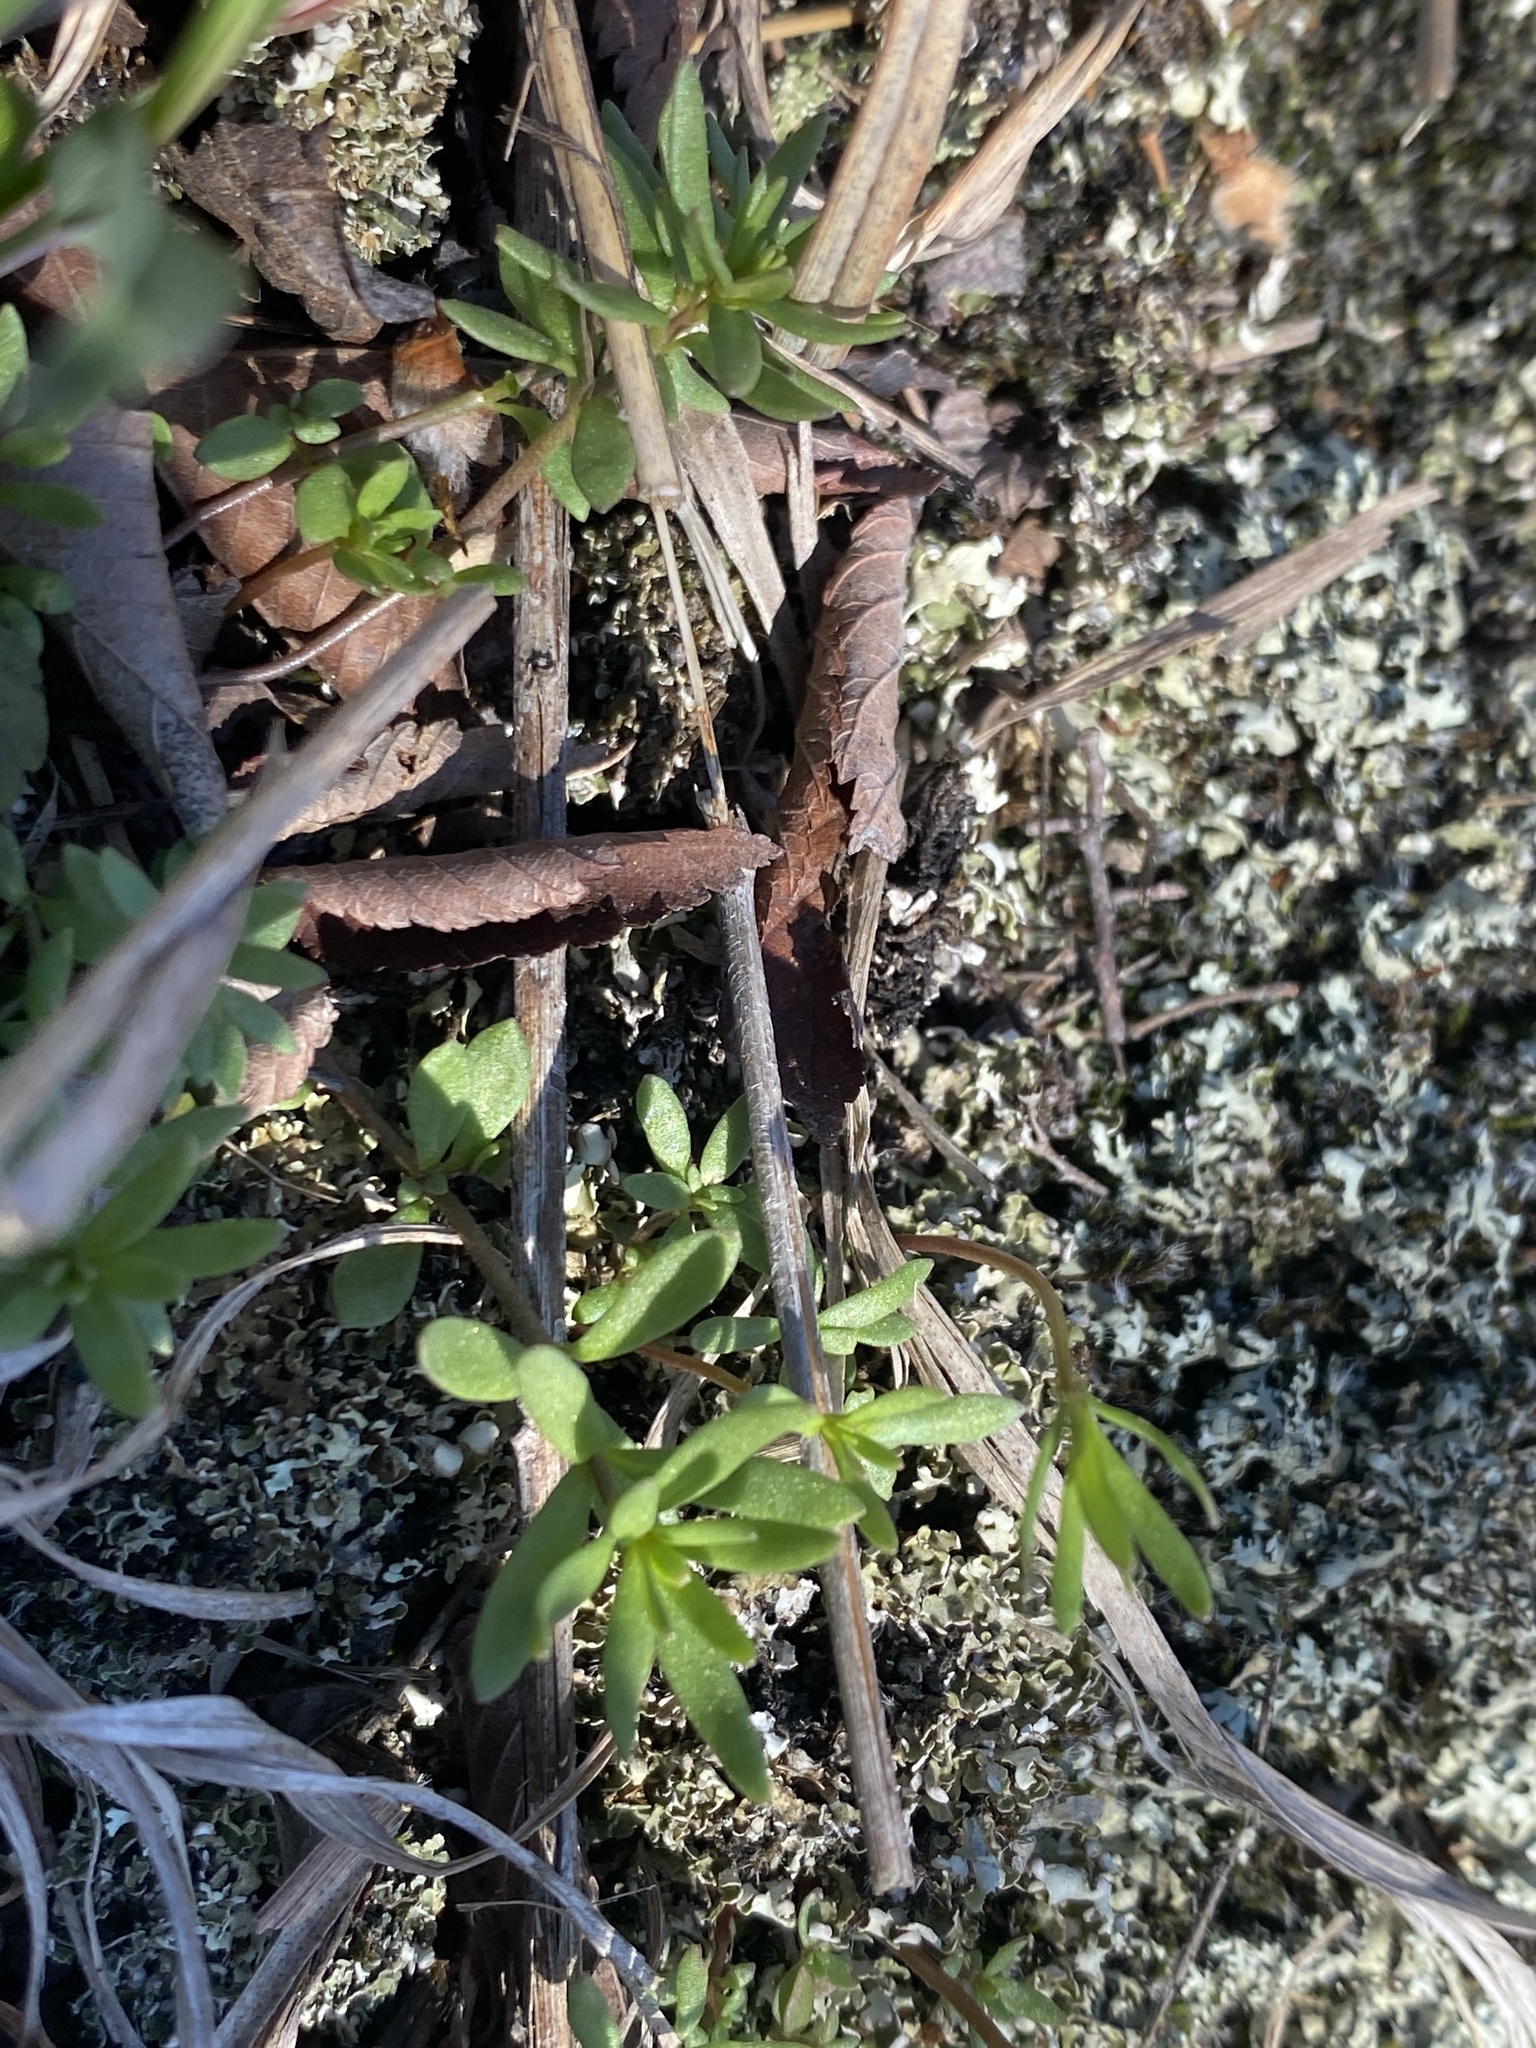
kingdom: Plantae
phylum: Tracheophyta
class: Magnoliopsida
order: Lamiales
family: Plantaginaceae
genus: Nuttallanthus
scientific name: Nuttallanthus texanus
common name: Texas toadflax
